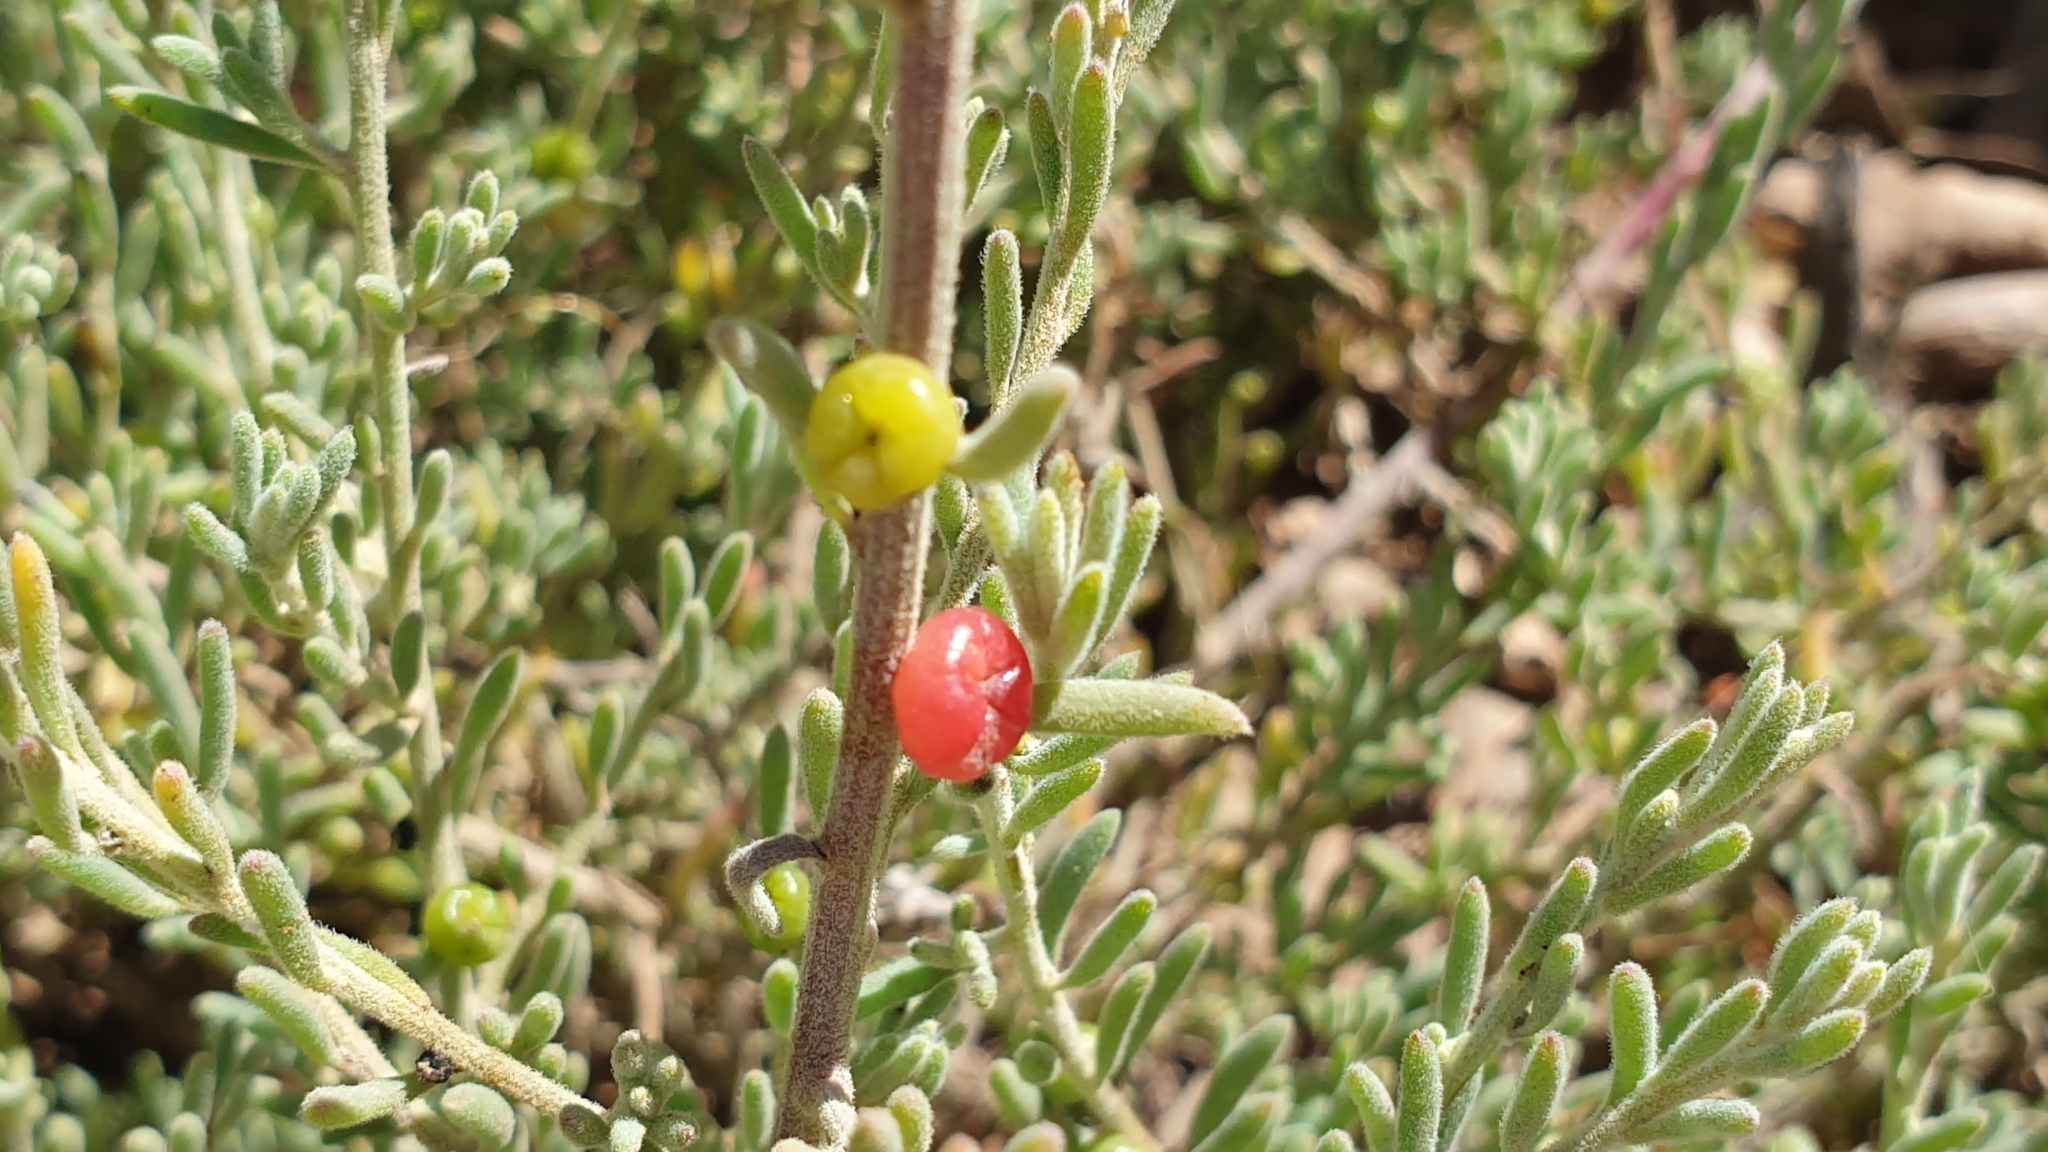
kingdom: Plantae
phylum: Tracheophyta
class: Magnoliopsida
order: Caryophyllales
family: Amaranthaceae
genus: Enchylaena
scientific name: Enchylaena tomentosa
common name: Ruby saltbush
